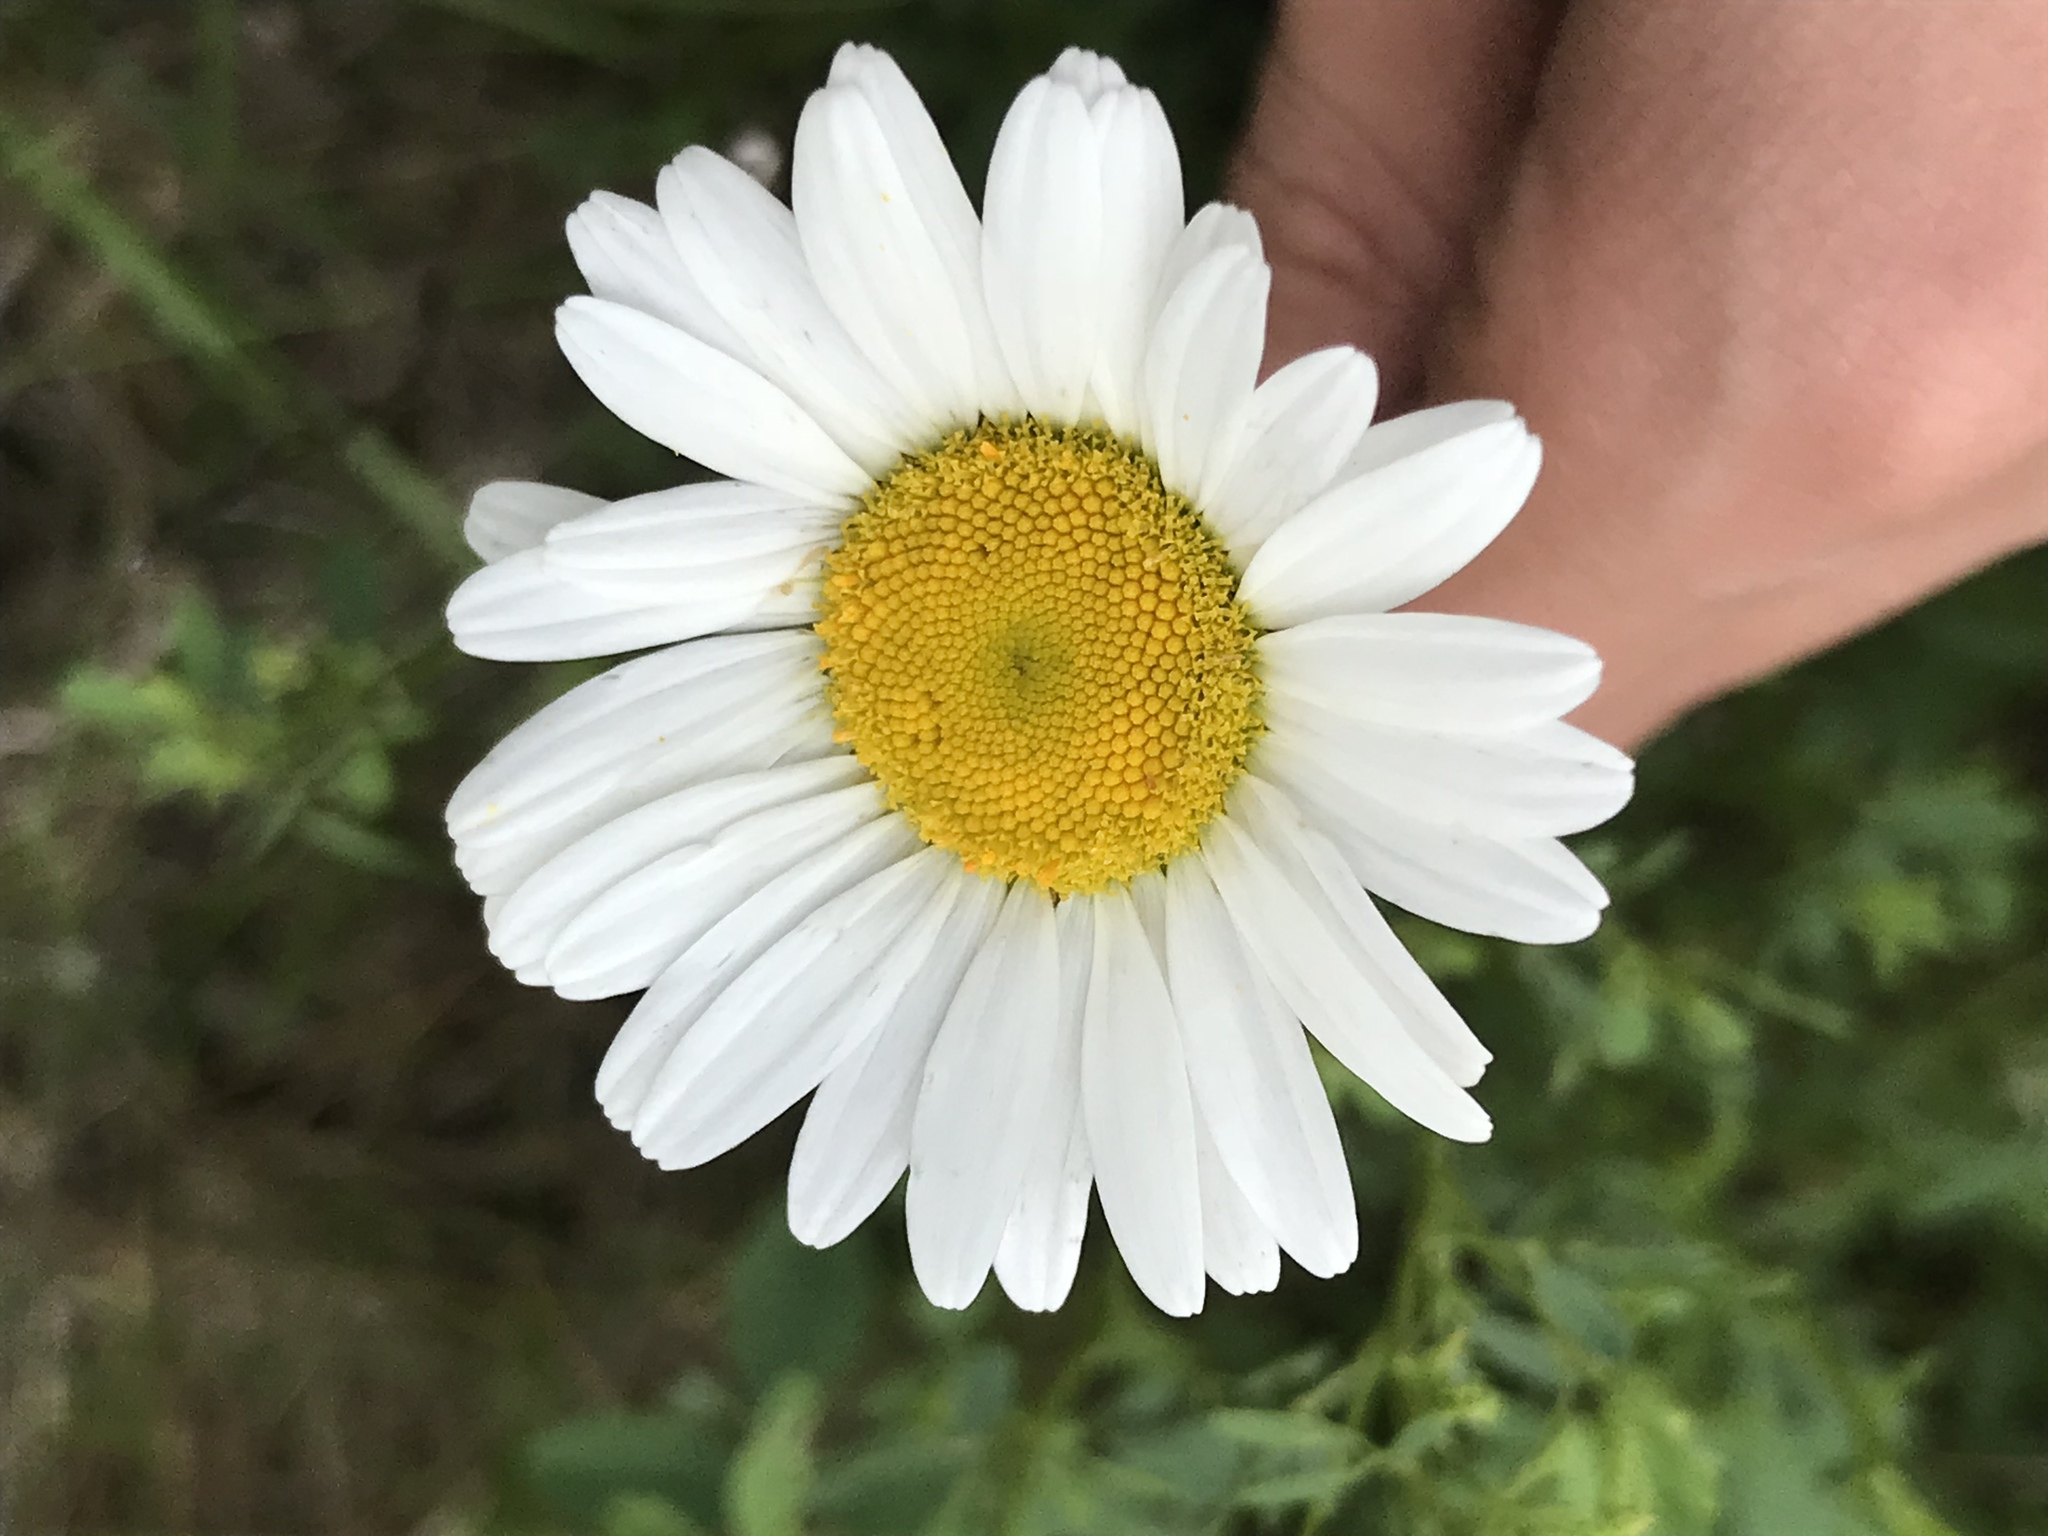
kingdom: Plantae
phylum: Tracheophyta
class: Magnoliopsida
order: Asterales
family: Asteraceae
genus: Leucanthemum
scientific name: Leucanthemum vulgare
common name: Oxeye daisy
